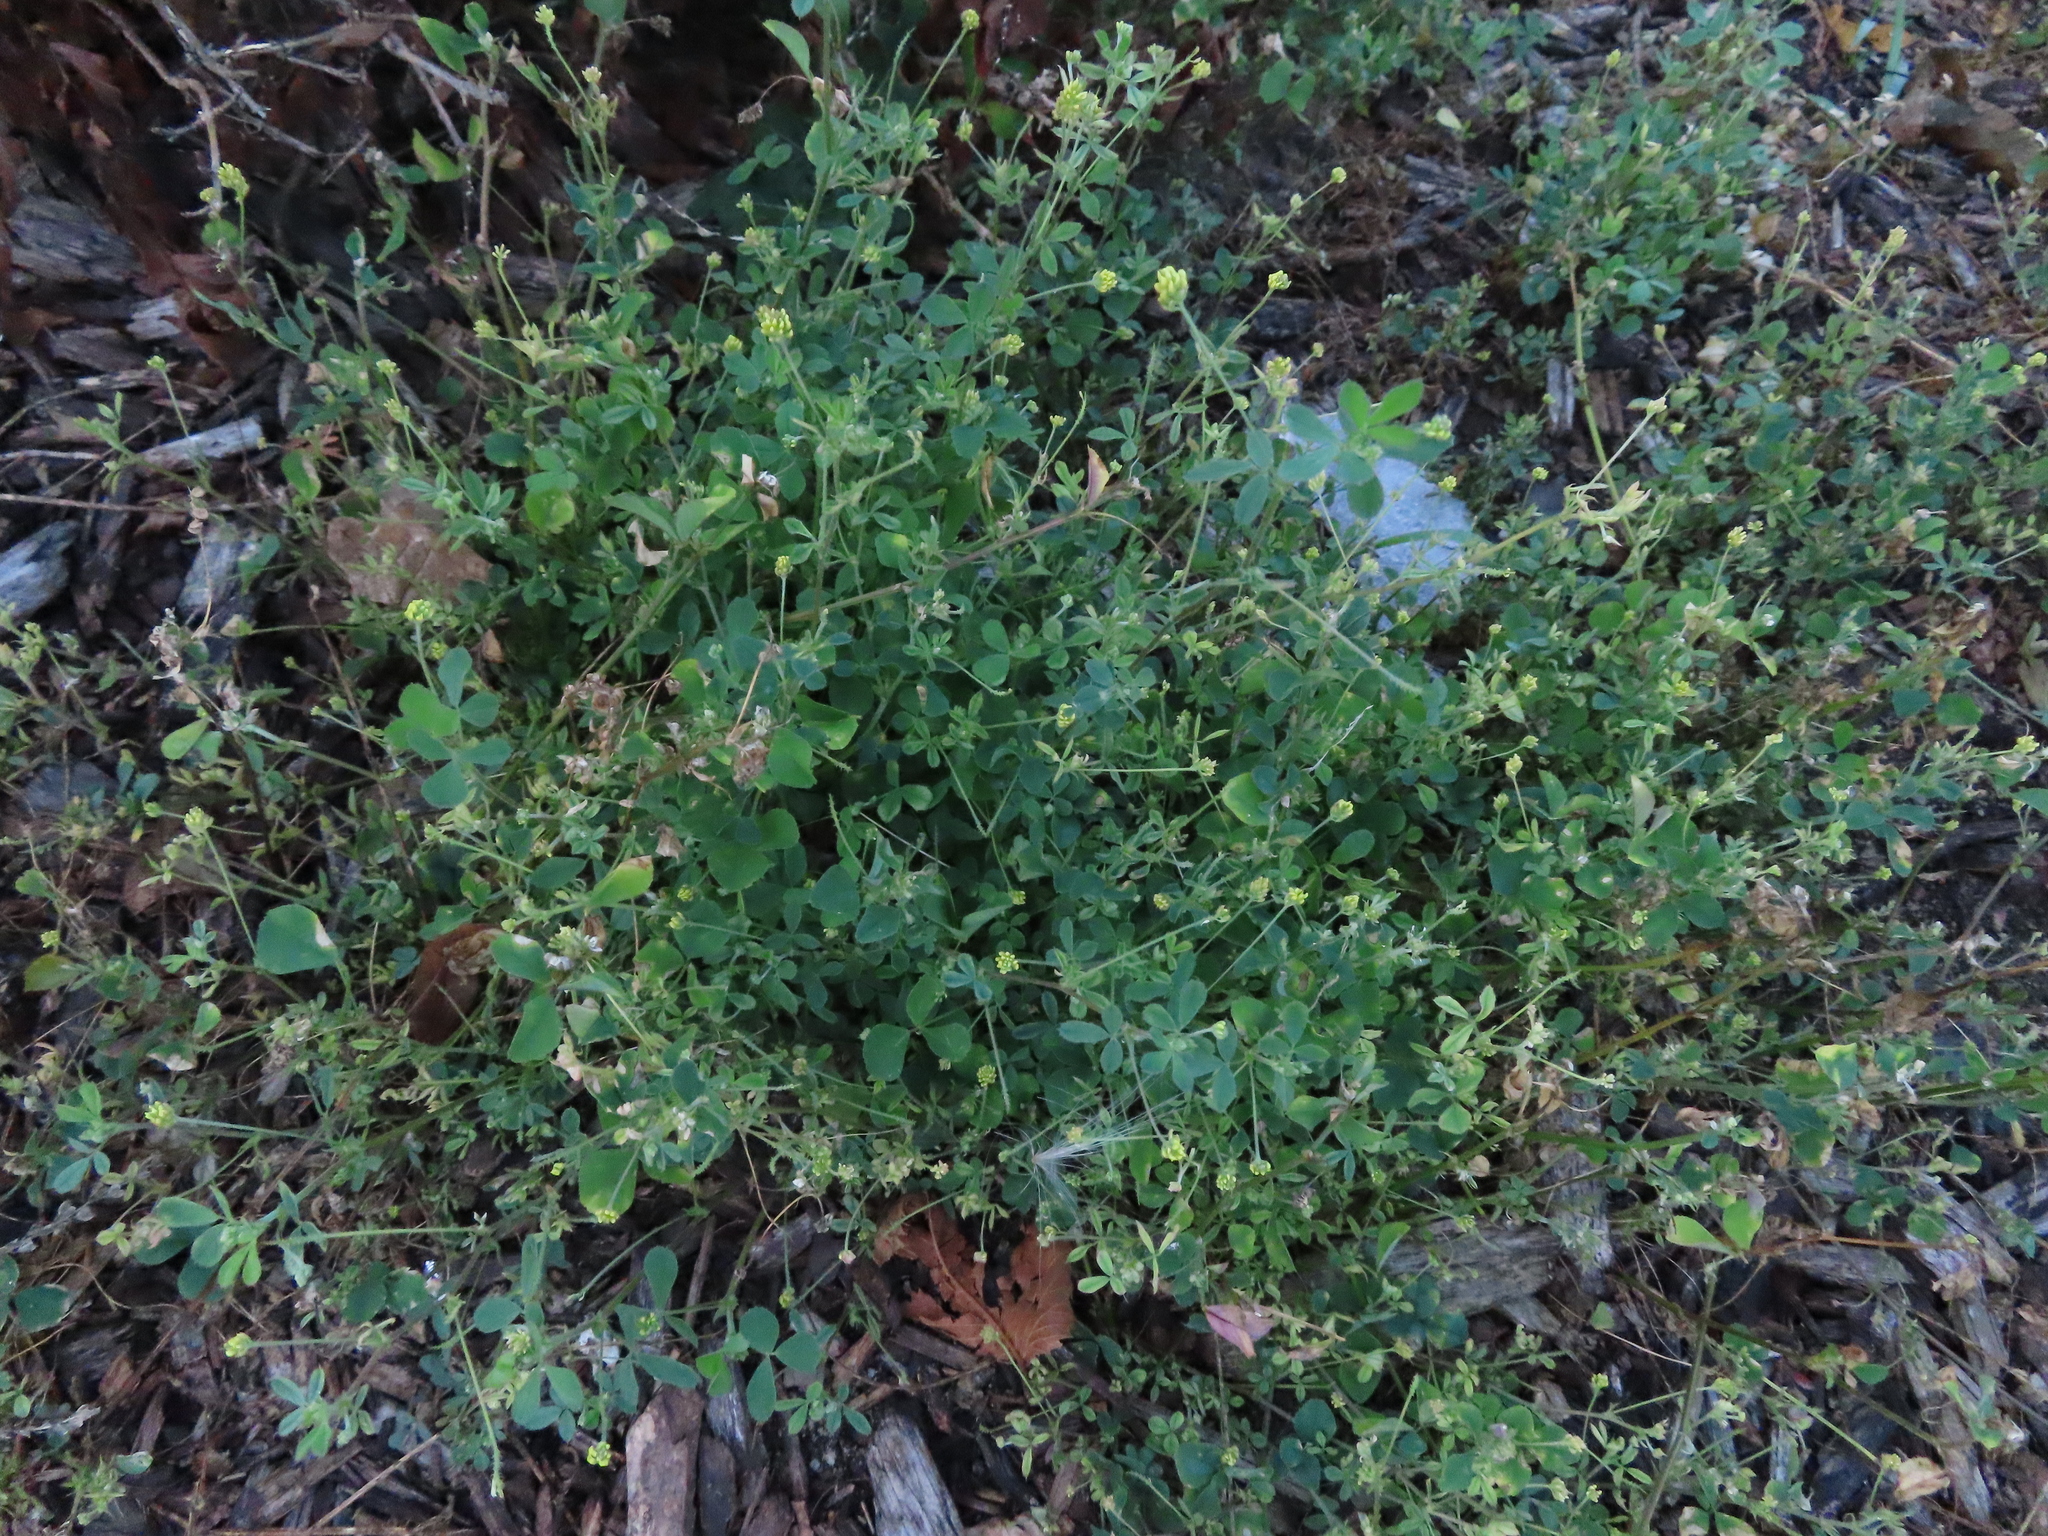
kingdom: Plantae
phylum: Tracheophyta
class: Magnoliopsida
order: Fabales
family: Fabaceae
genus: Medicago
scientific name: Medicago lupulina
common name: Black medick
